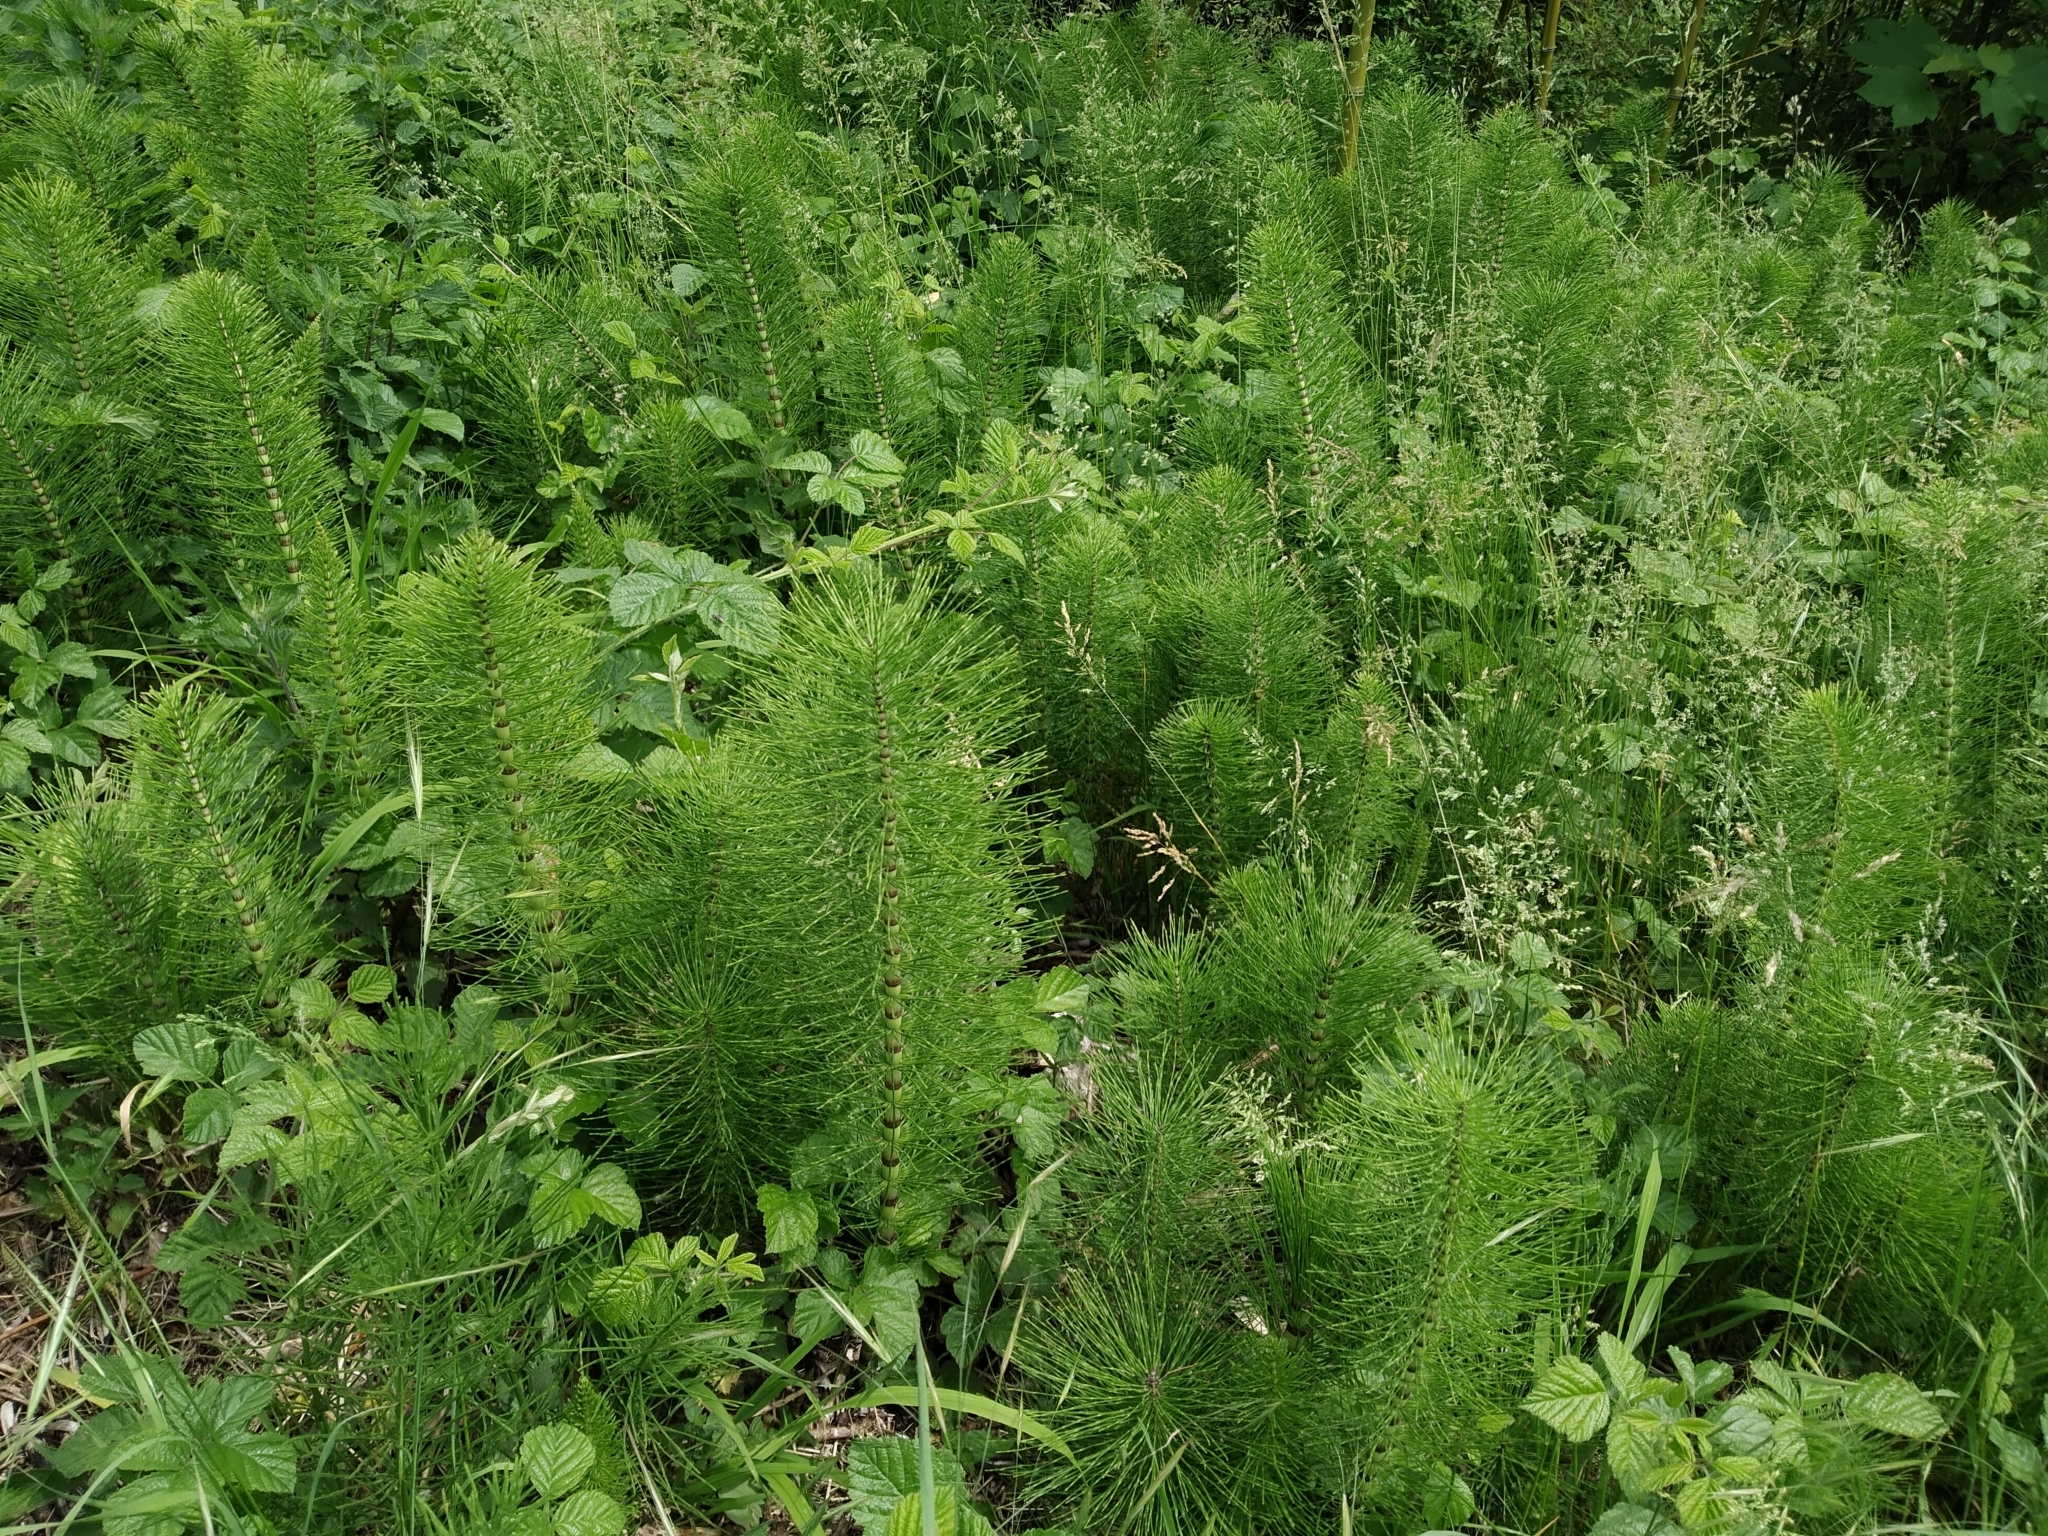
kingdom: Plantae
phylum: Tracheophyta
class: Polypodiopsida
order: Equisetales
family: Equisetaceae
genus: Equisetum
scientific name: Equisetum telmateia
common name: Great horsetail
